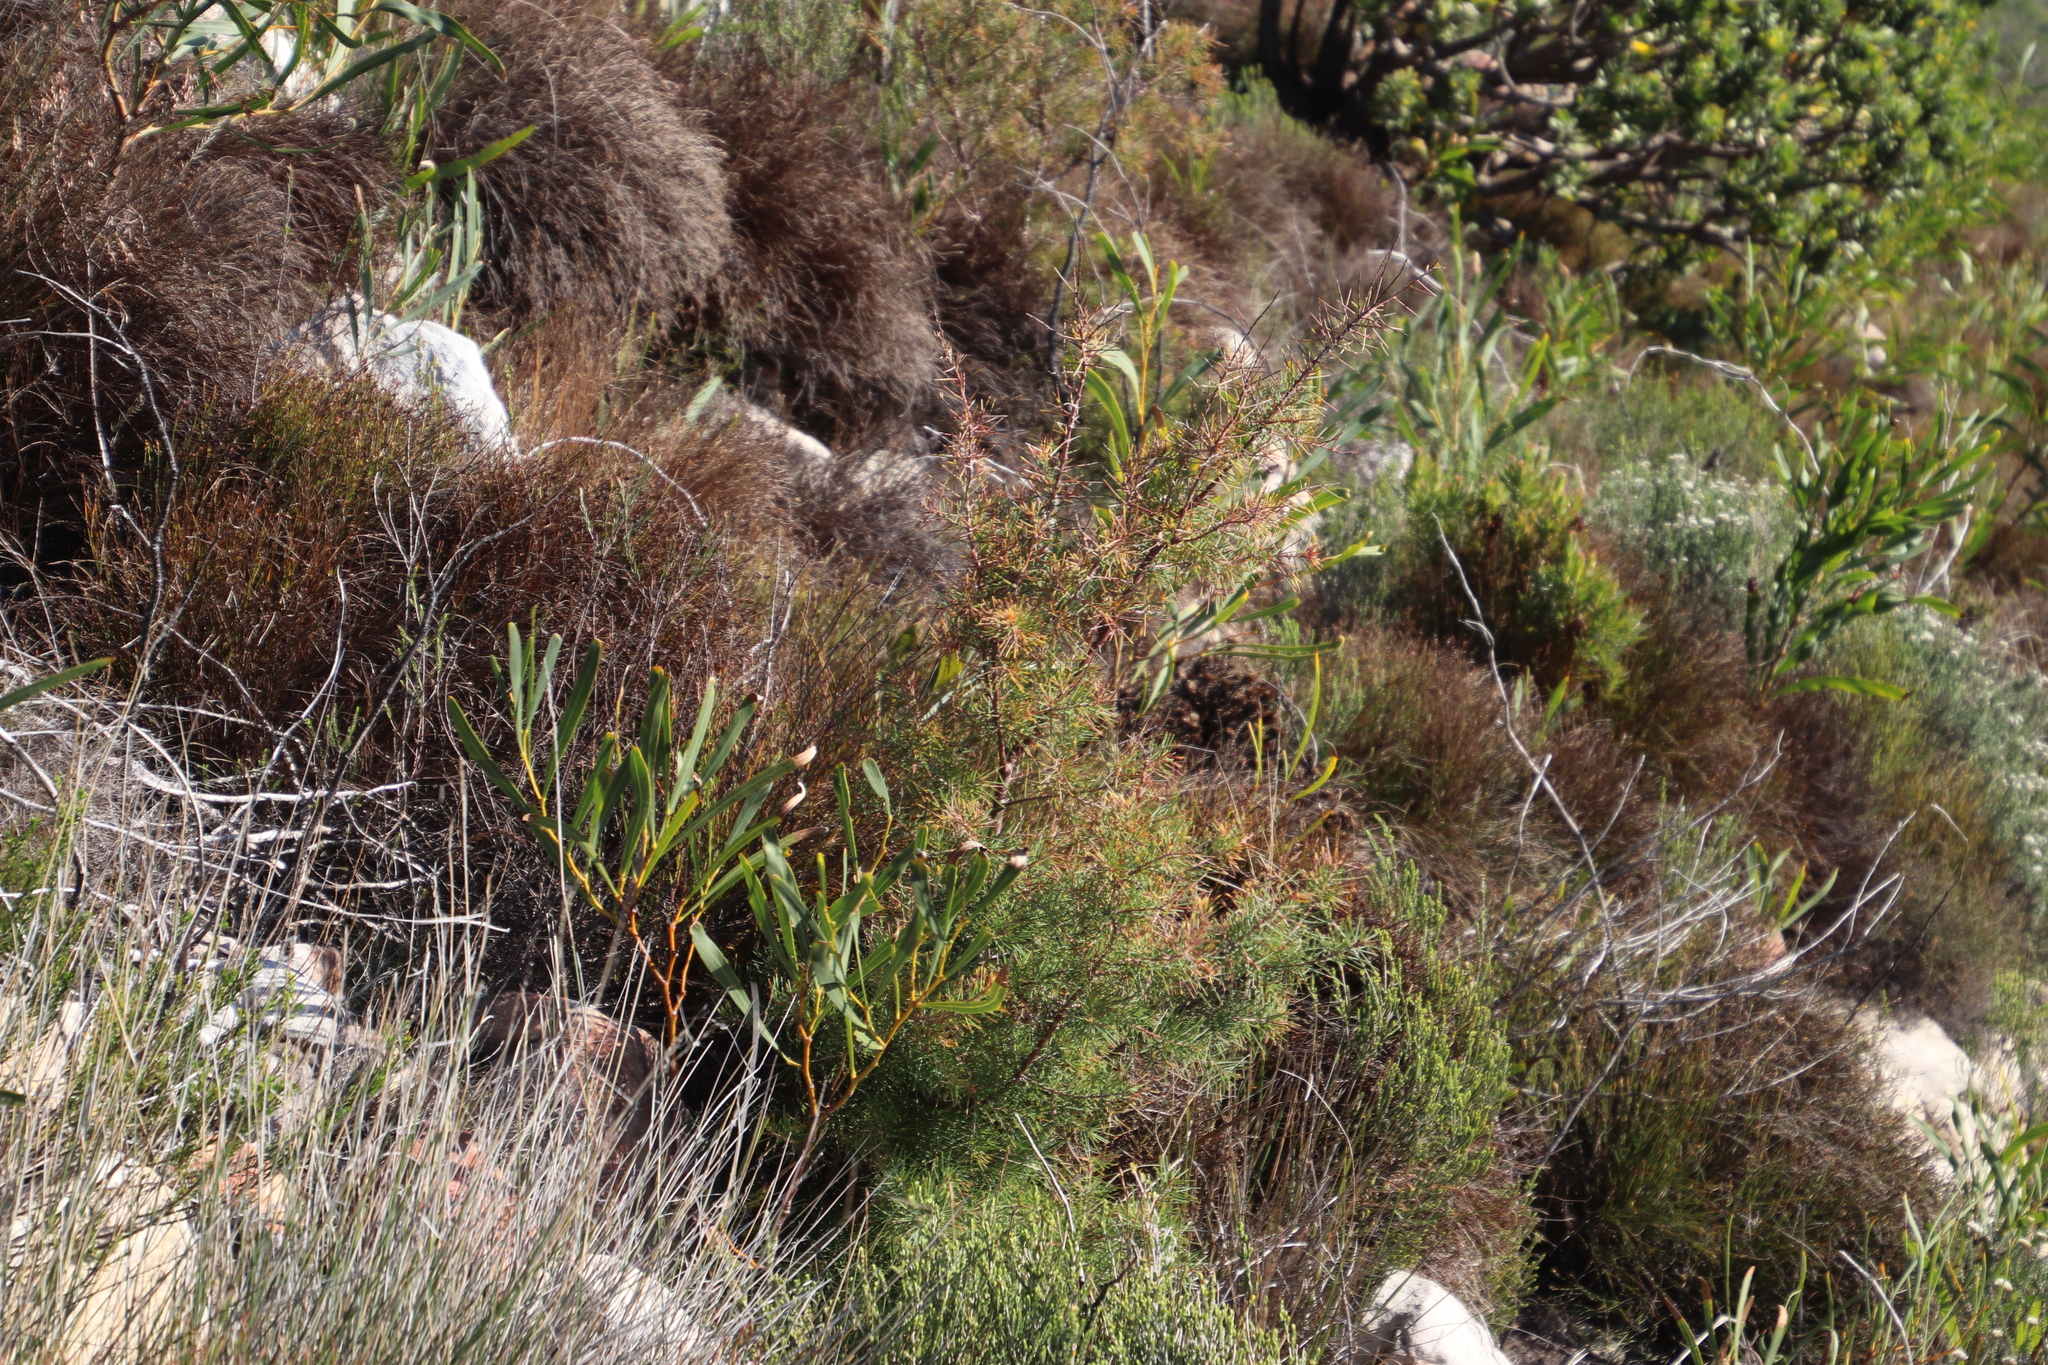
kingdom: Plantae
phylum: Tracheophyta
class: Magnoliopsida
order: Proteales
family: Proteaceae
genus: Hakea
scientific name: Hakea sericea
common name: Needle bush
